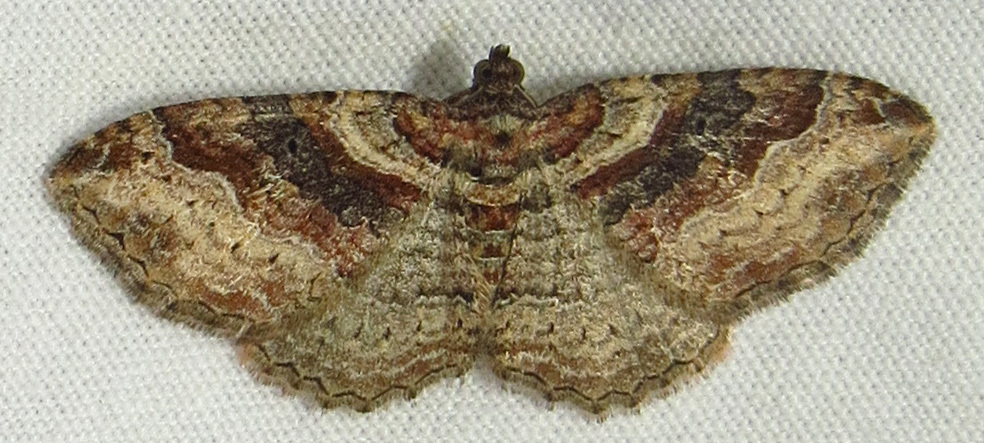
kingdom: Animalia
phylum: Arthropoda
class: Insecta
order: Lepidoptera
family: Geometridae
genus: Costaconvexa
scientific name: Costaconvexa centrostrigaria
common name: Bent-line carpet
